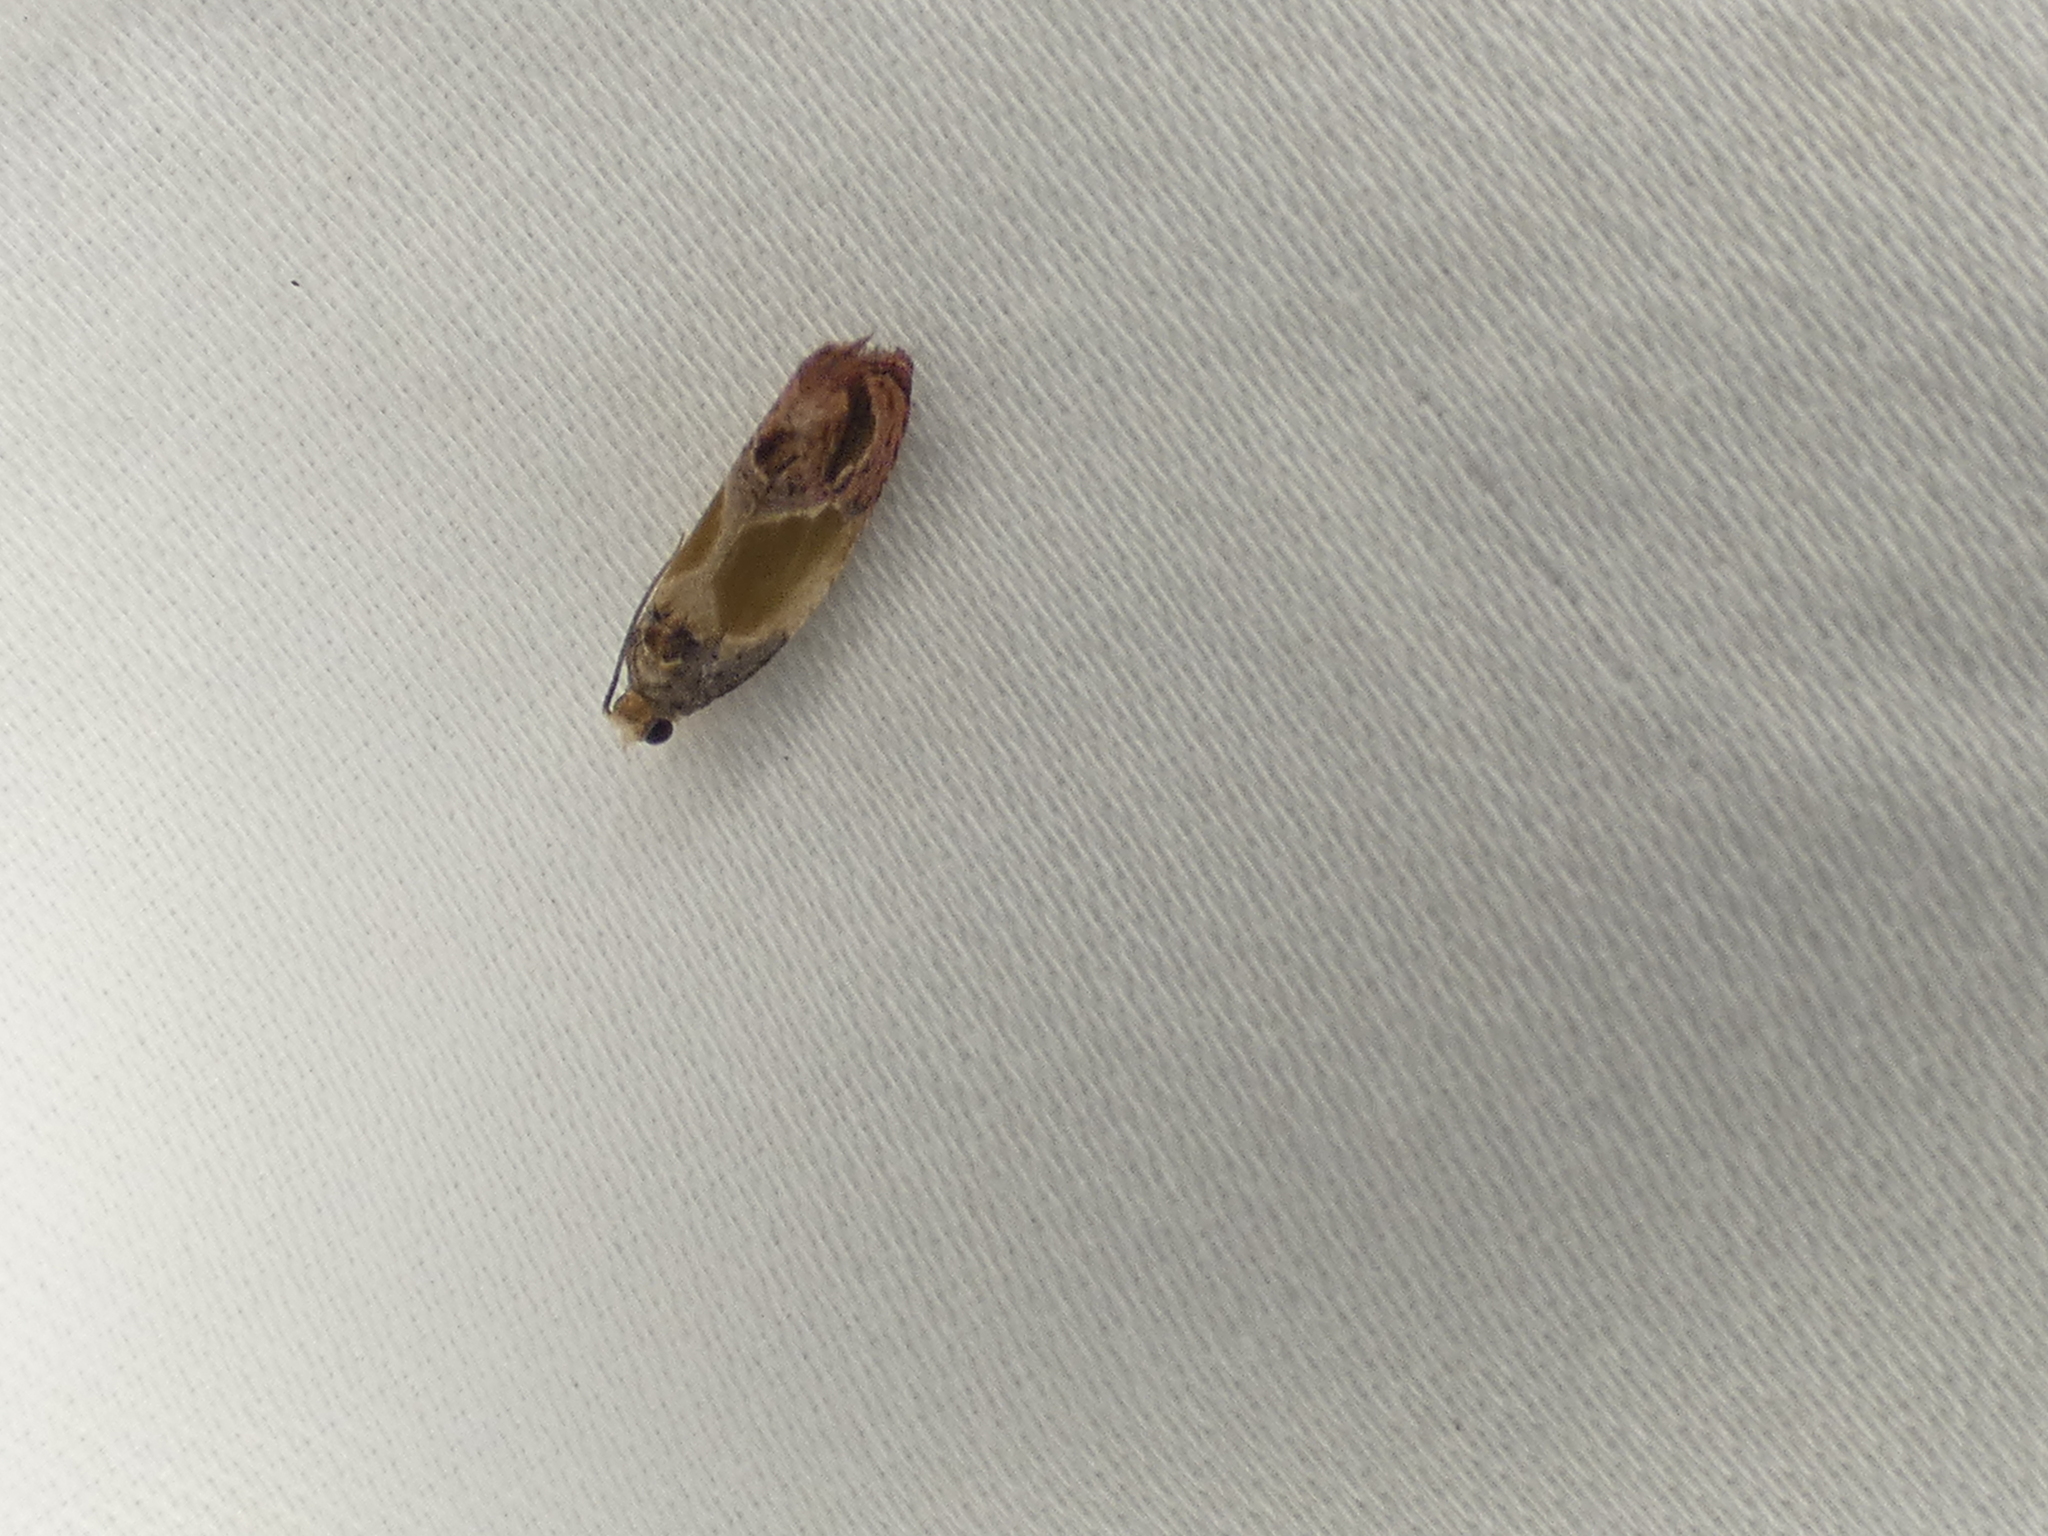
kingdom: Animalia
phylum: Arthropoda
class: Insecta
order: Lepidoptera
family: Tortricidae
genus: Eumarozia
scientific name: Eumarozia malachitana
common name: Sculptured moth
